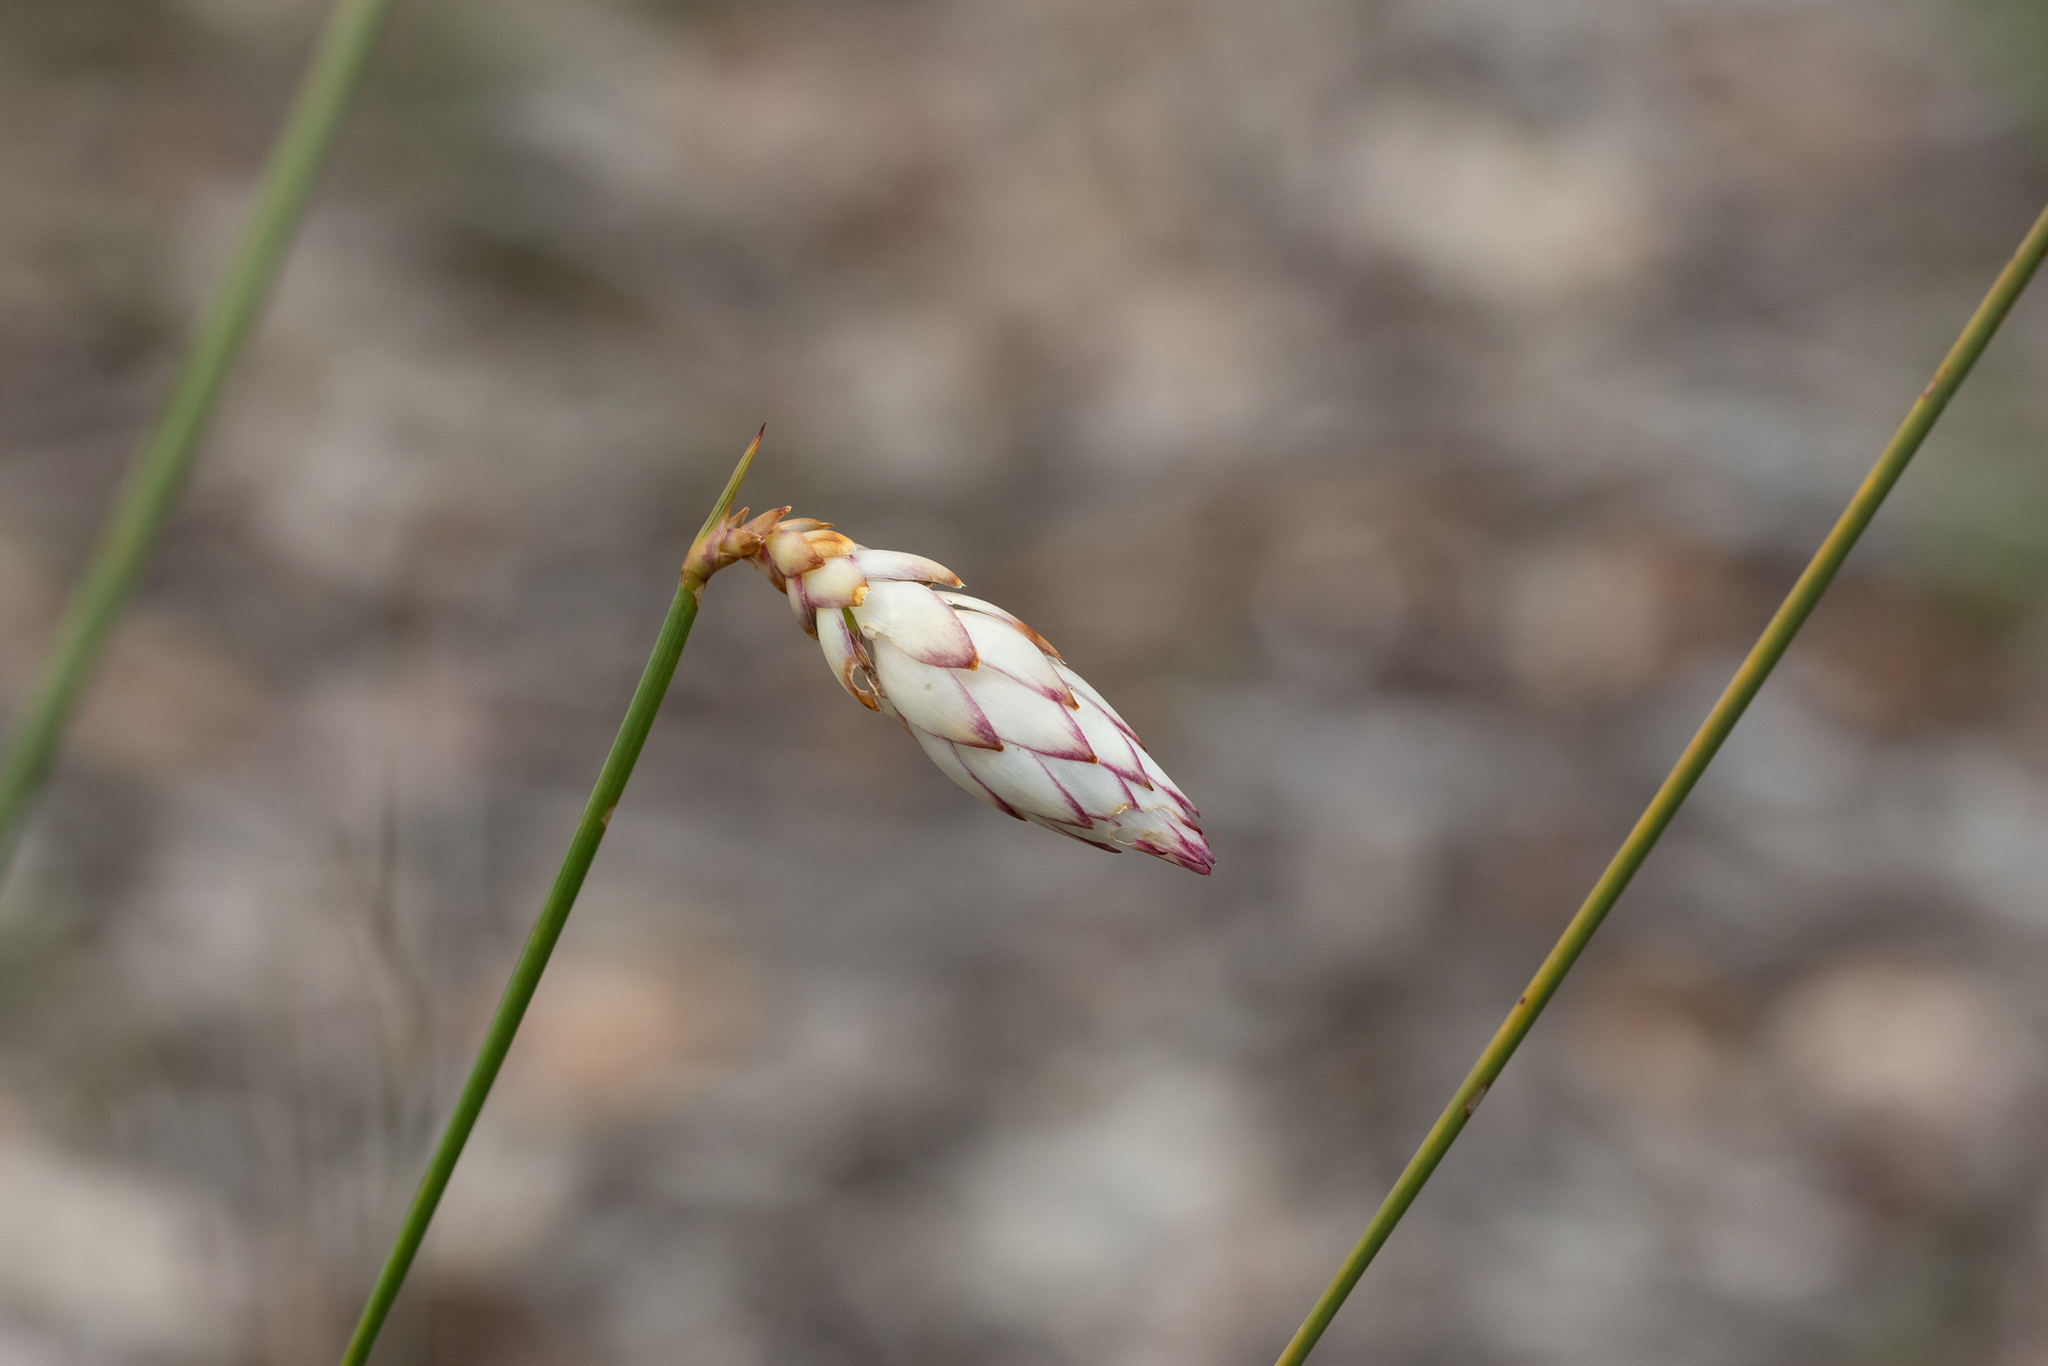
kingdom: Plantae
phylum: Tracheophyta
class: Liliopsida
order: Asparagales
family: Asphodelaceae
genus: Johnsonia
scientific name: Johnsonia lupulina
